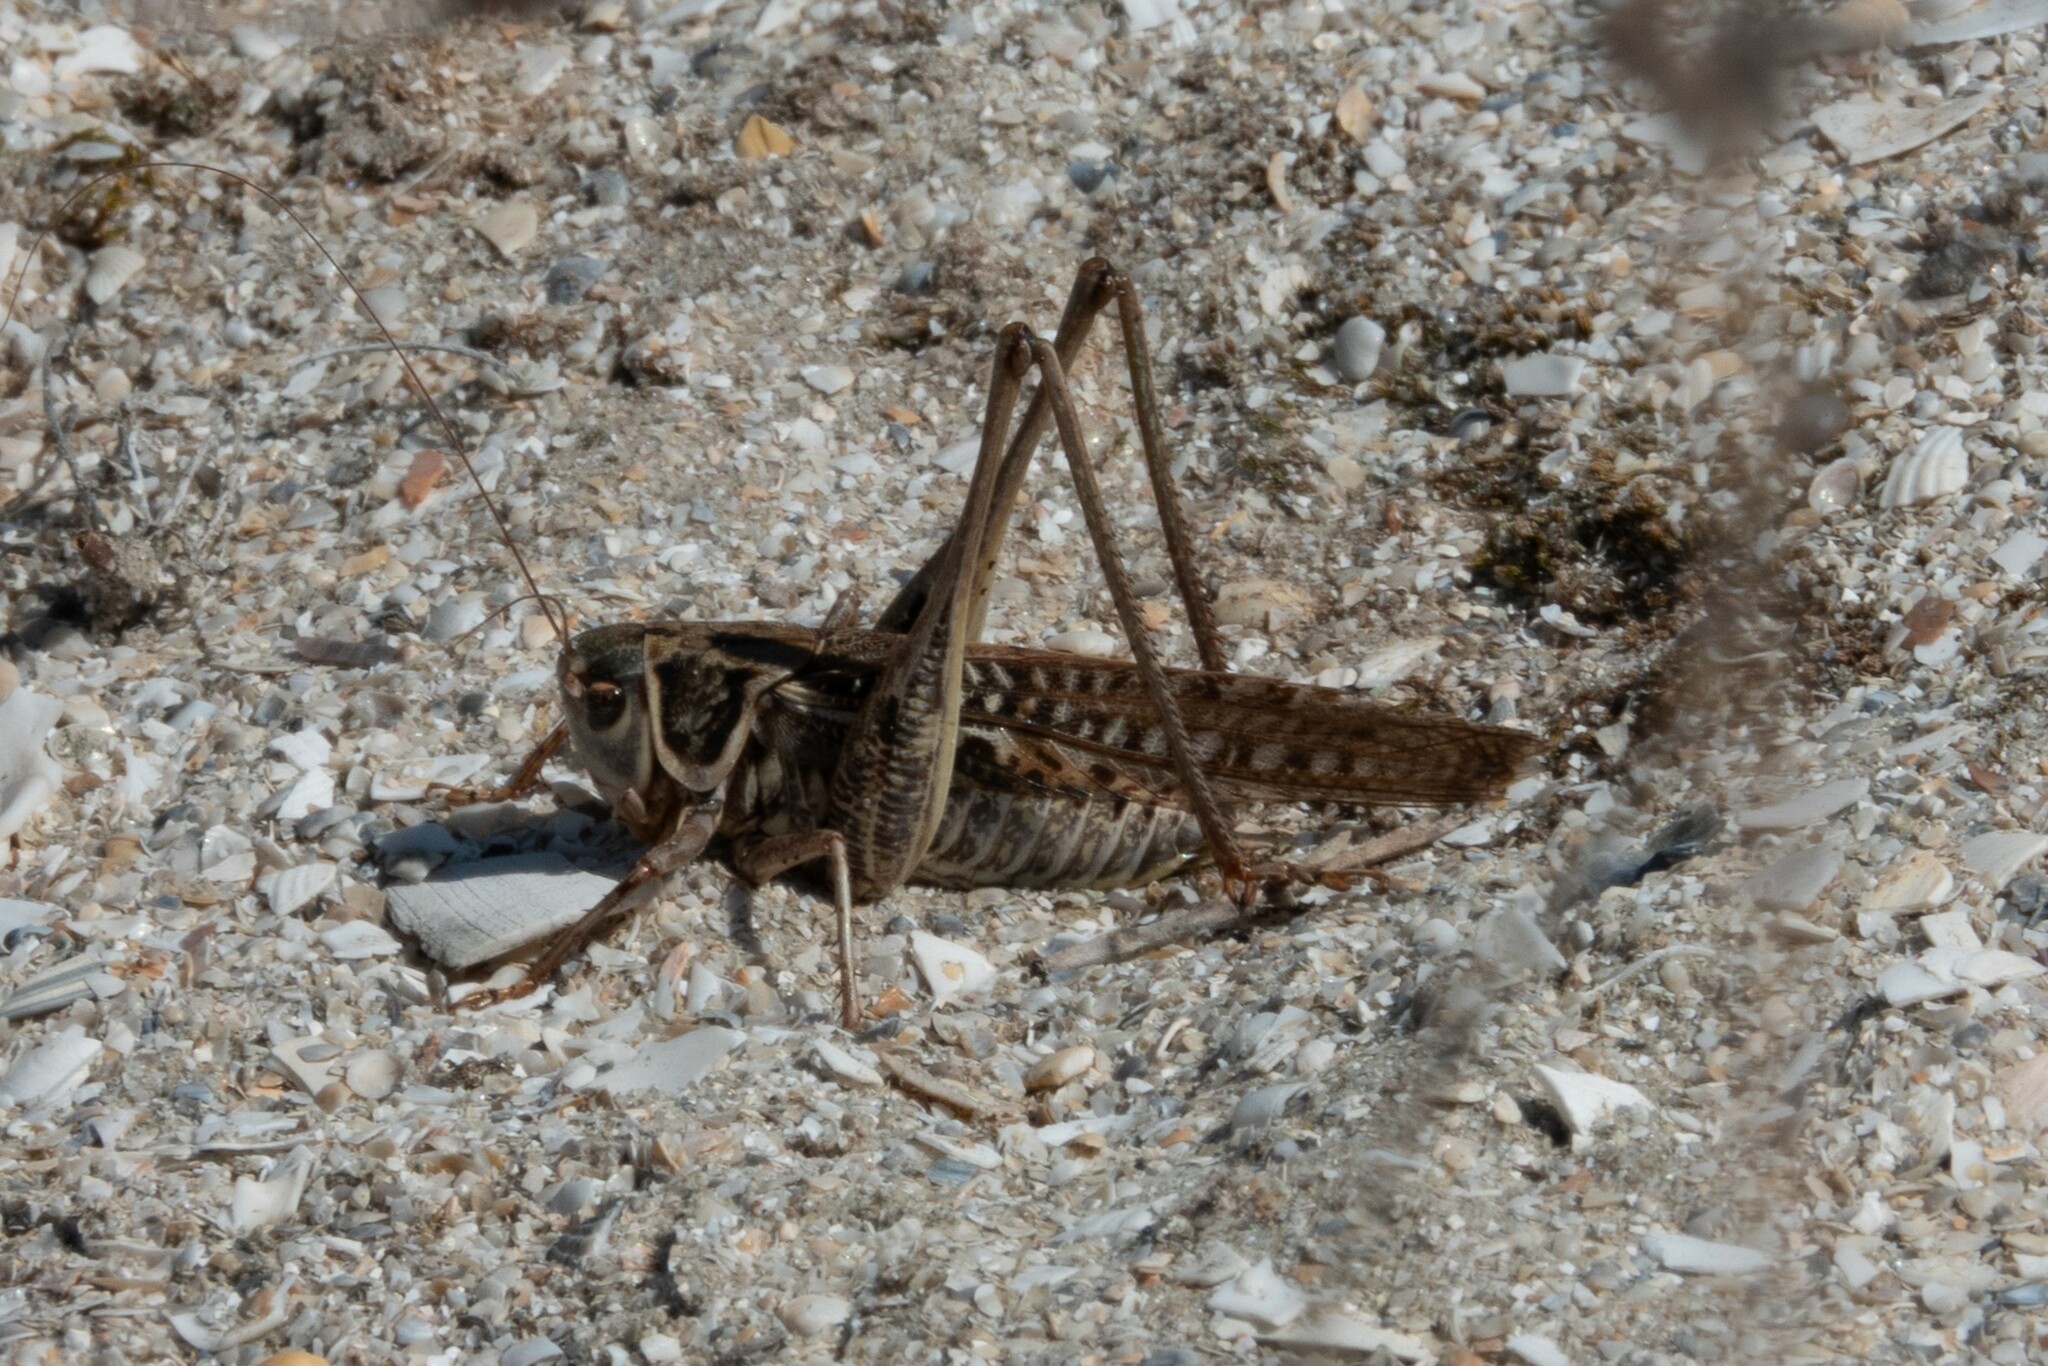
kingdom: Animalia
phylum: Arthropoda
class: Insecta
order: Orthoptera
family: Tettigoniidae
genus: Decticus
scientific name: Decticus albifrons
